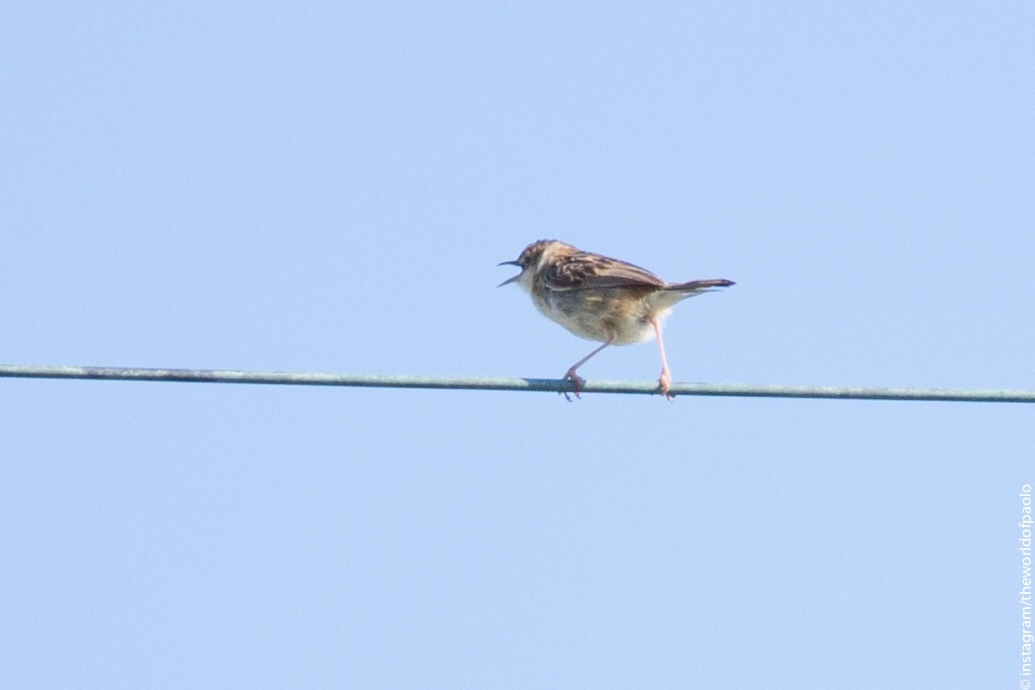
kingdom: Animalia
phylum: Chordata
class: Aves
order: Passeriformes
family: Cisticolidae
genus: Cisticola
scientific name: Cisticola juncidis
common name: Zitting cisticola
